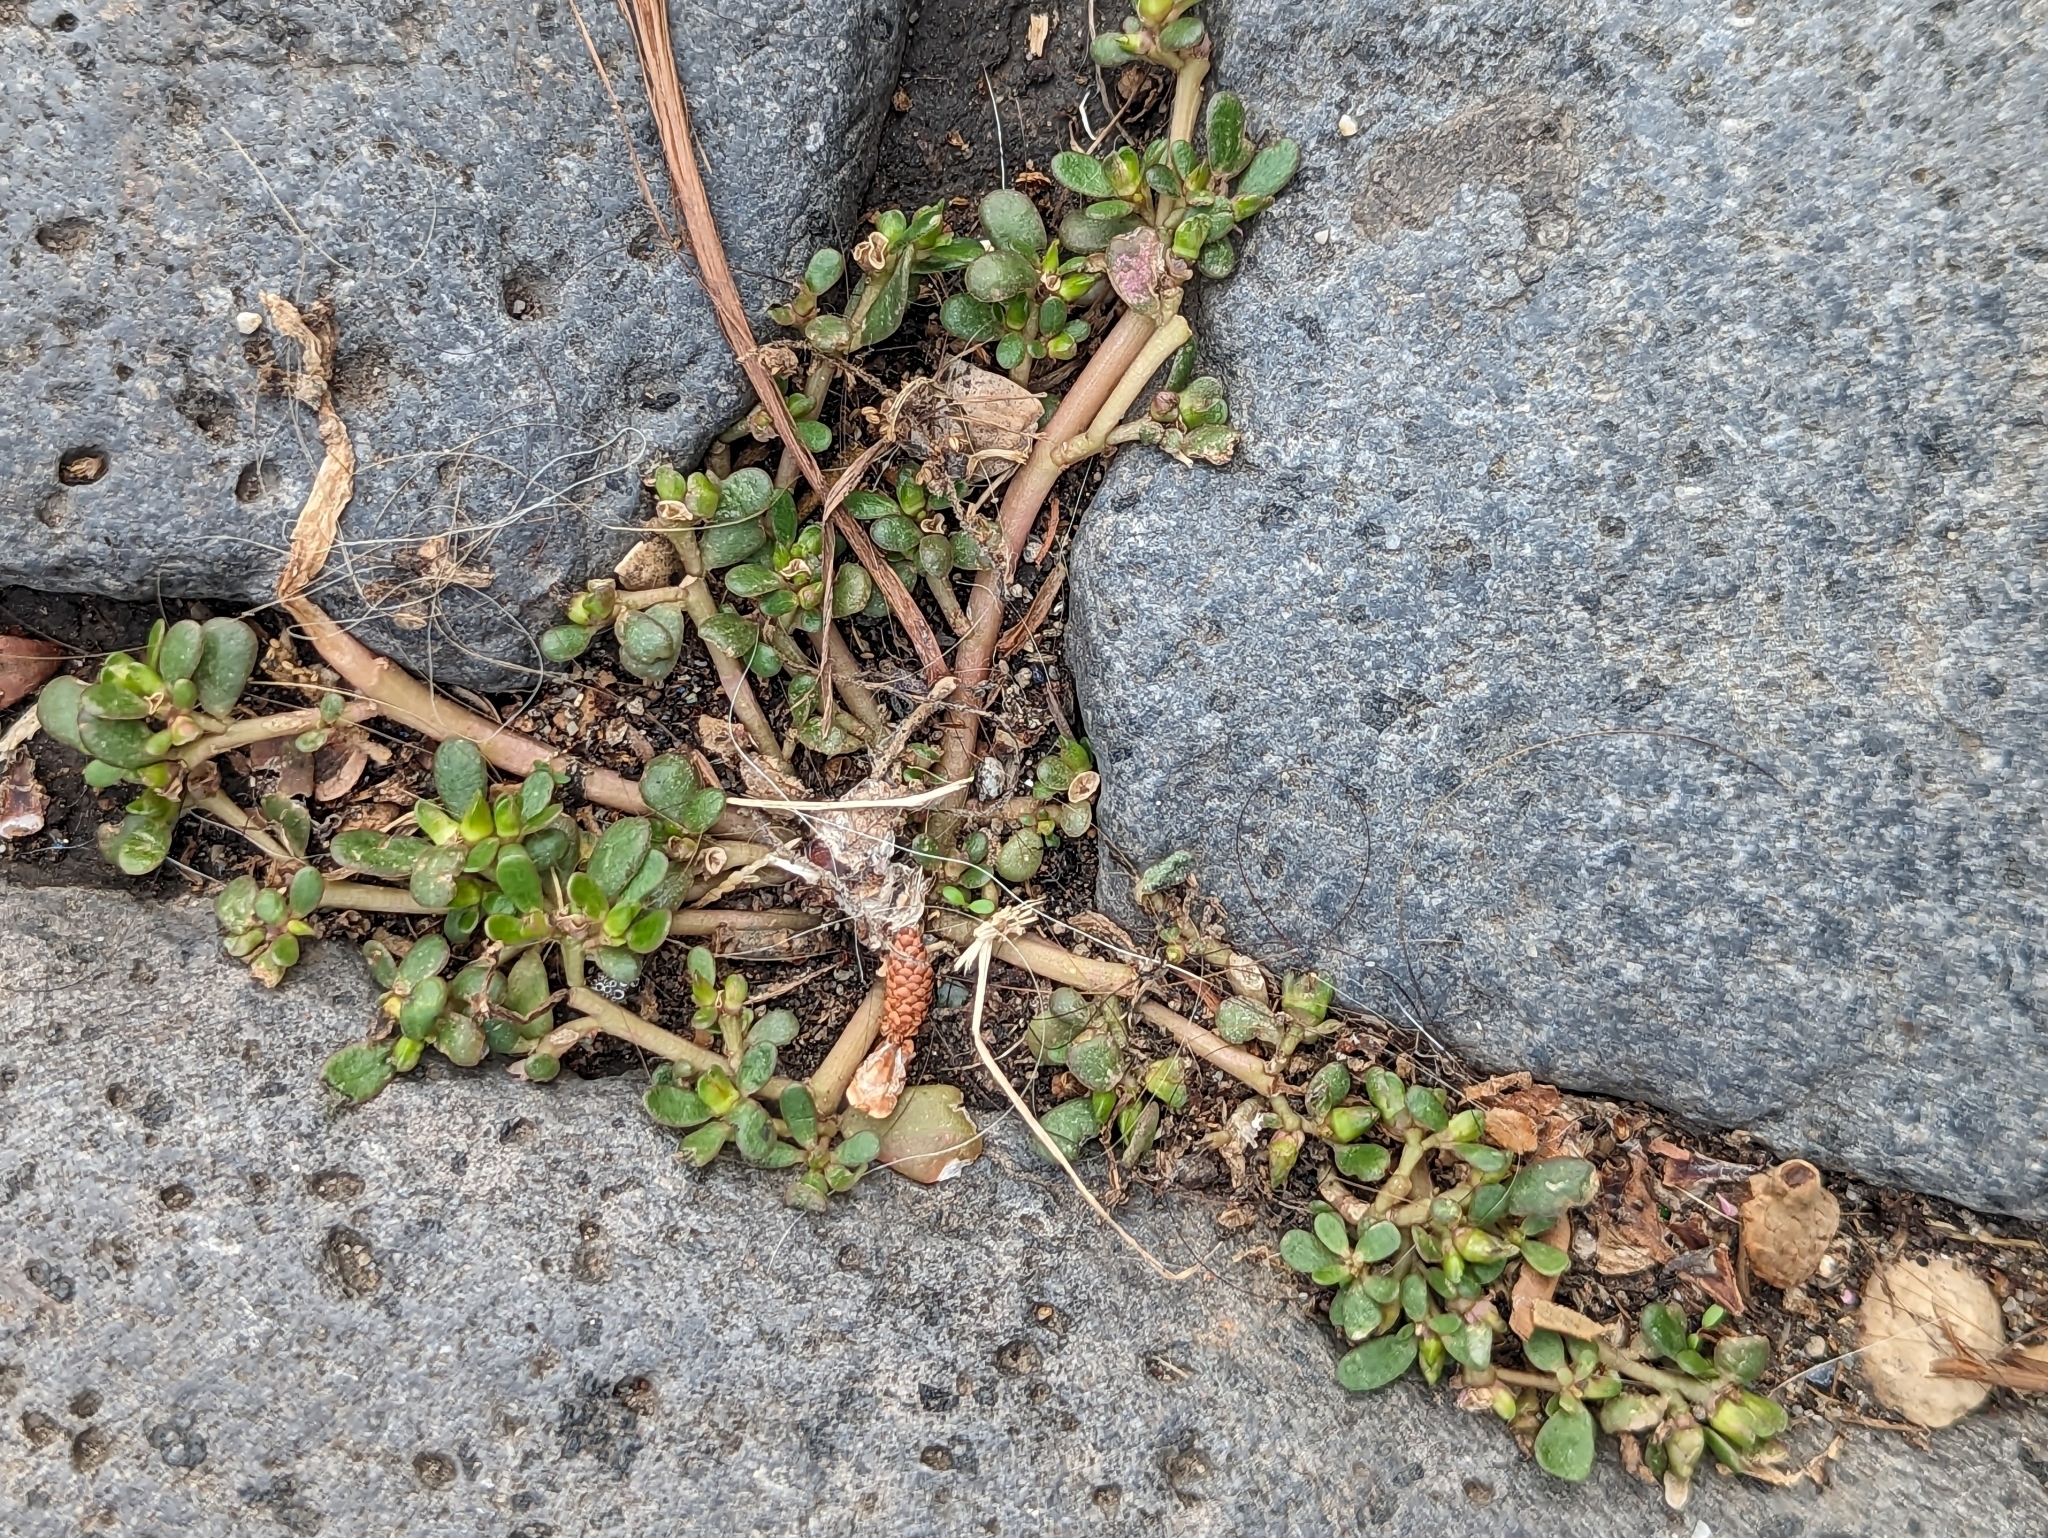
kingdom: Plantae
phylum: Tracheophyta
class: Magnoliopsida
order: Caryophyllales
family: Portulacaceae
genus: Portulaca
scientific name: Portulaca oleracea
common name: Common purslane
